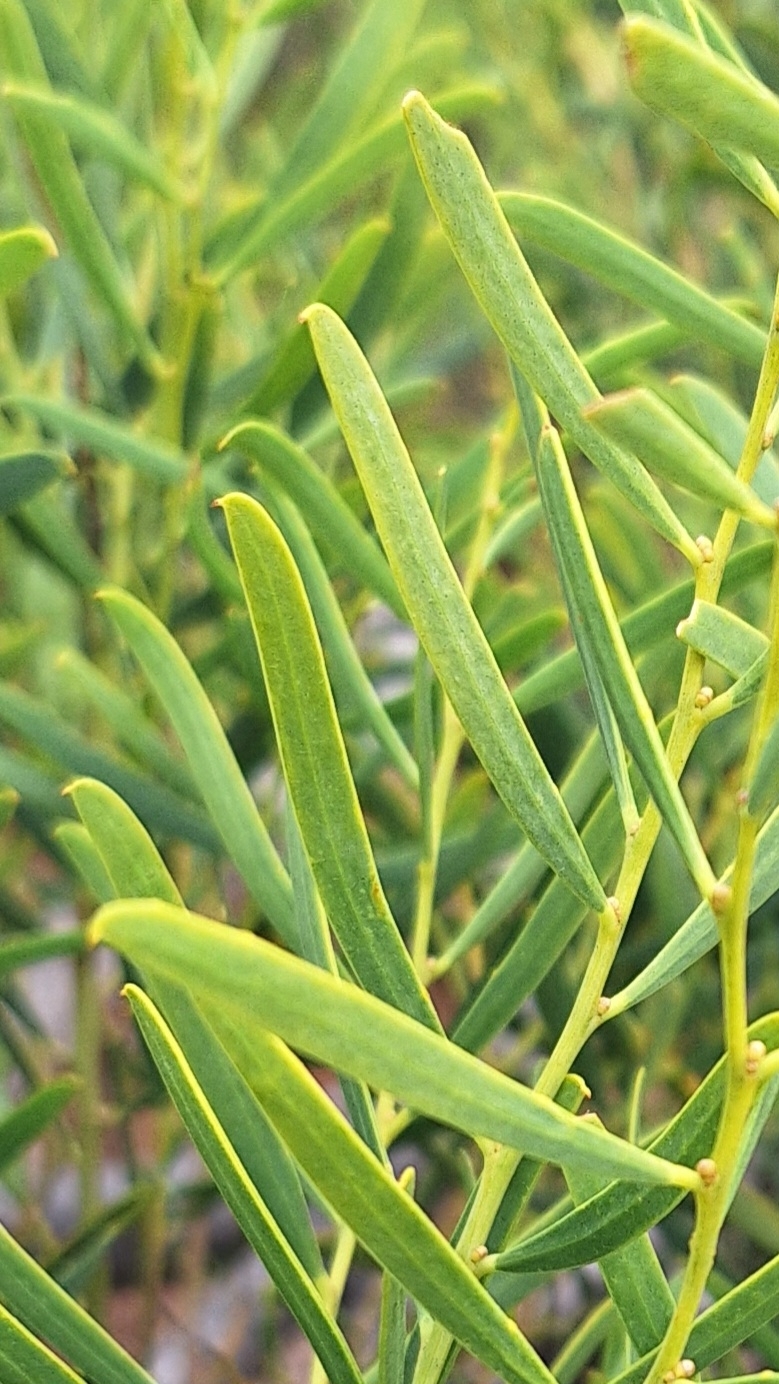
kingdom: Plantae
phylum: Tracheophyta
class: Magnoliopsida
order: Fabales
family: Fabaceae
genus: Acacia
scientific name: Acacia ligulata
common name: Dune wattle
